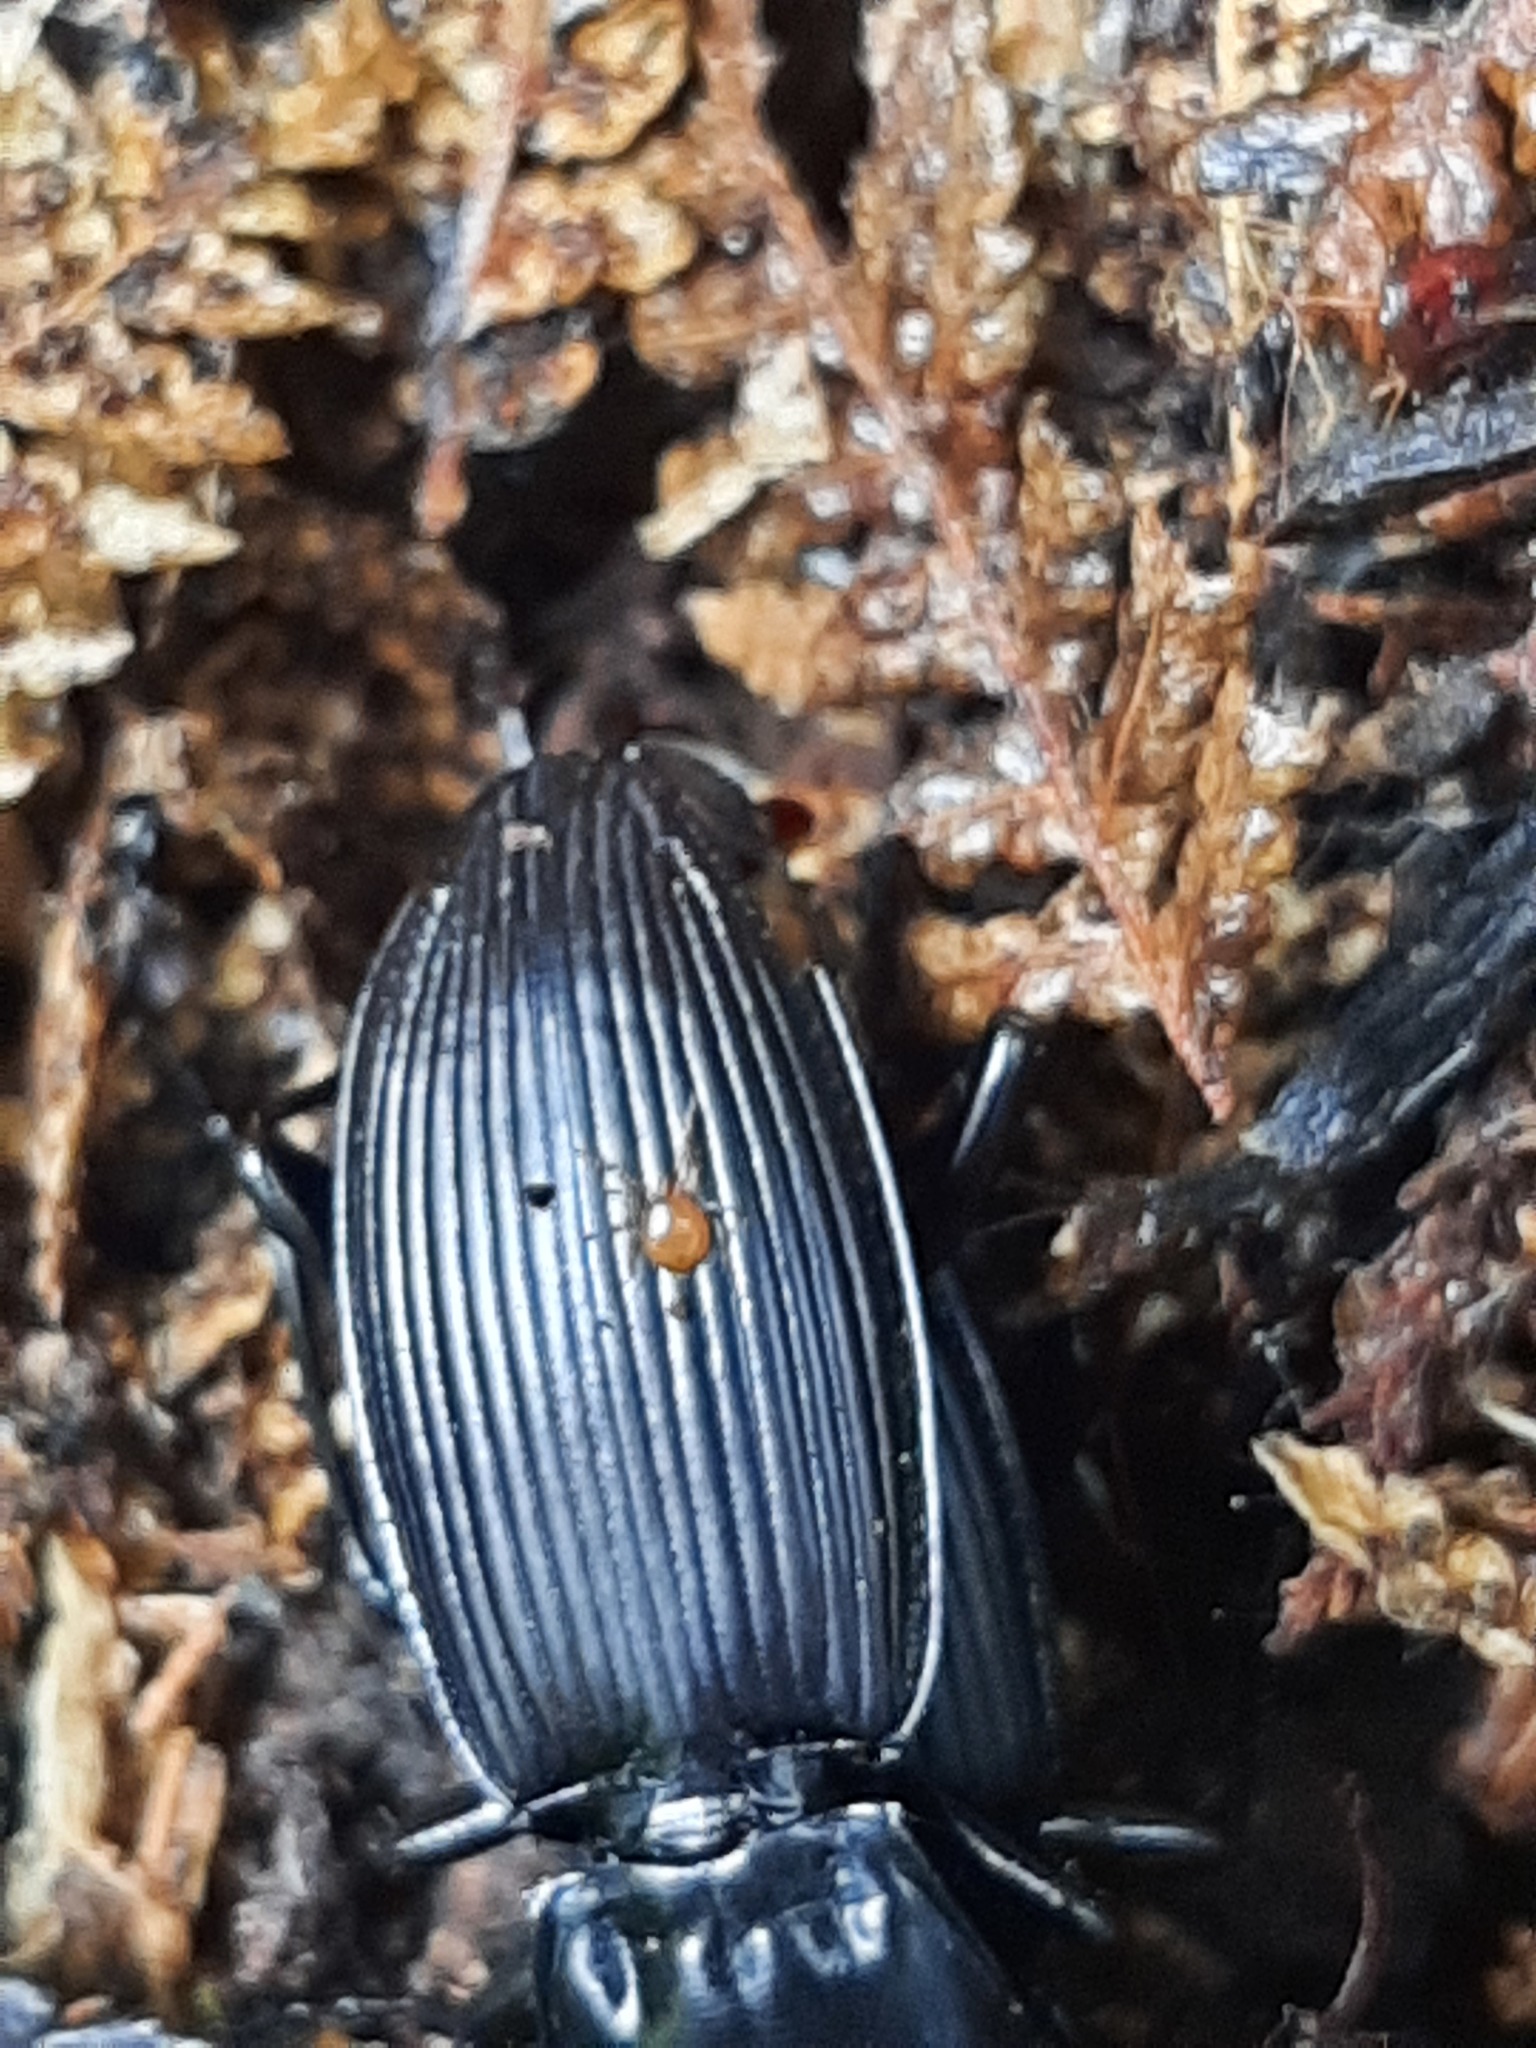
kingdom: Animalia
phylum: Arthropoda
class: Arachnida
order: Mesostigmata
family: Discozerconidae
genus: Berzercon
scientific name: Berzercon ferdinandi
